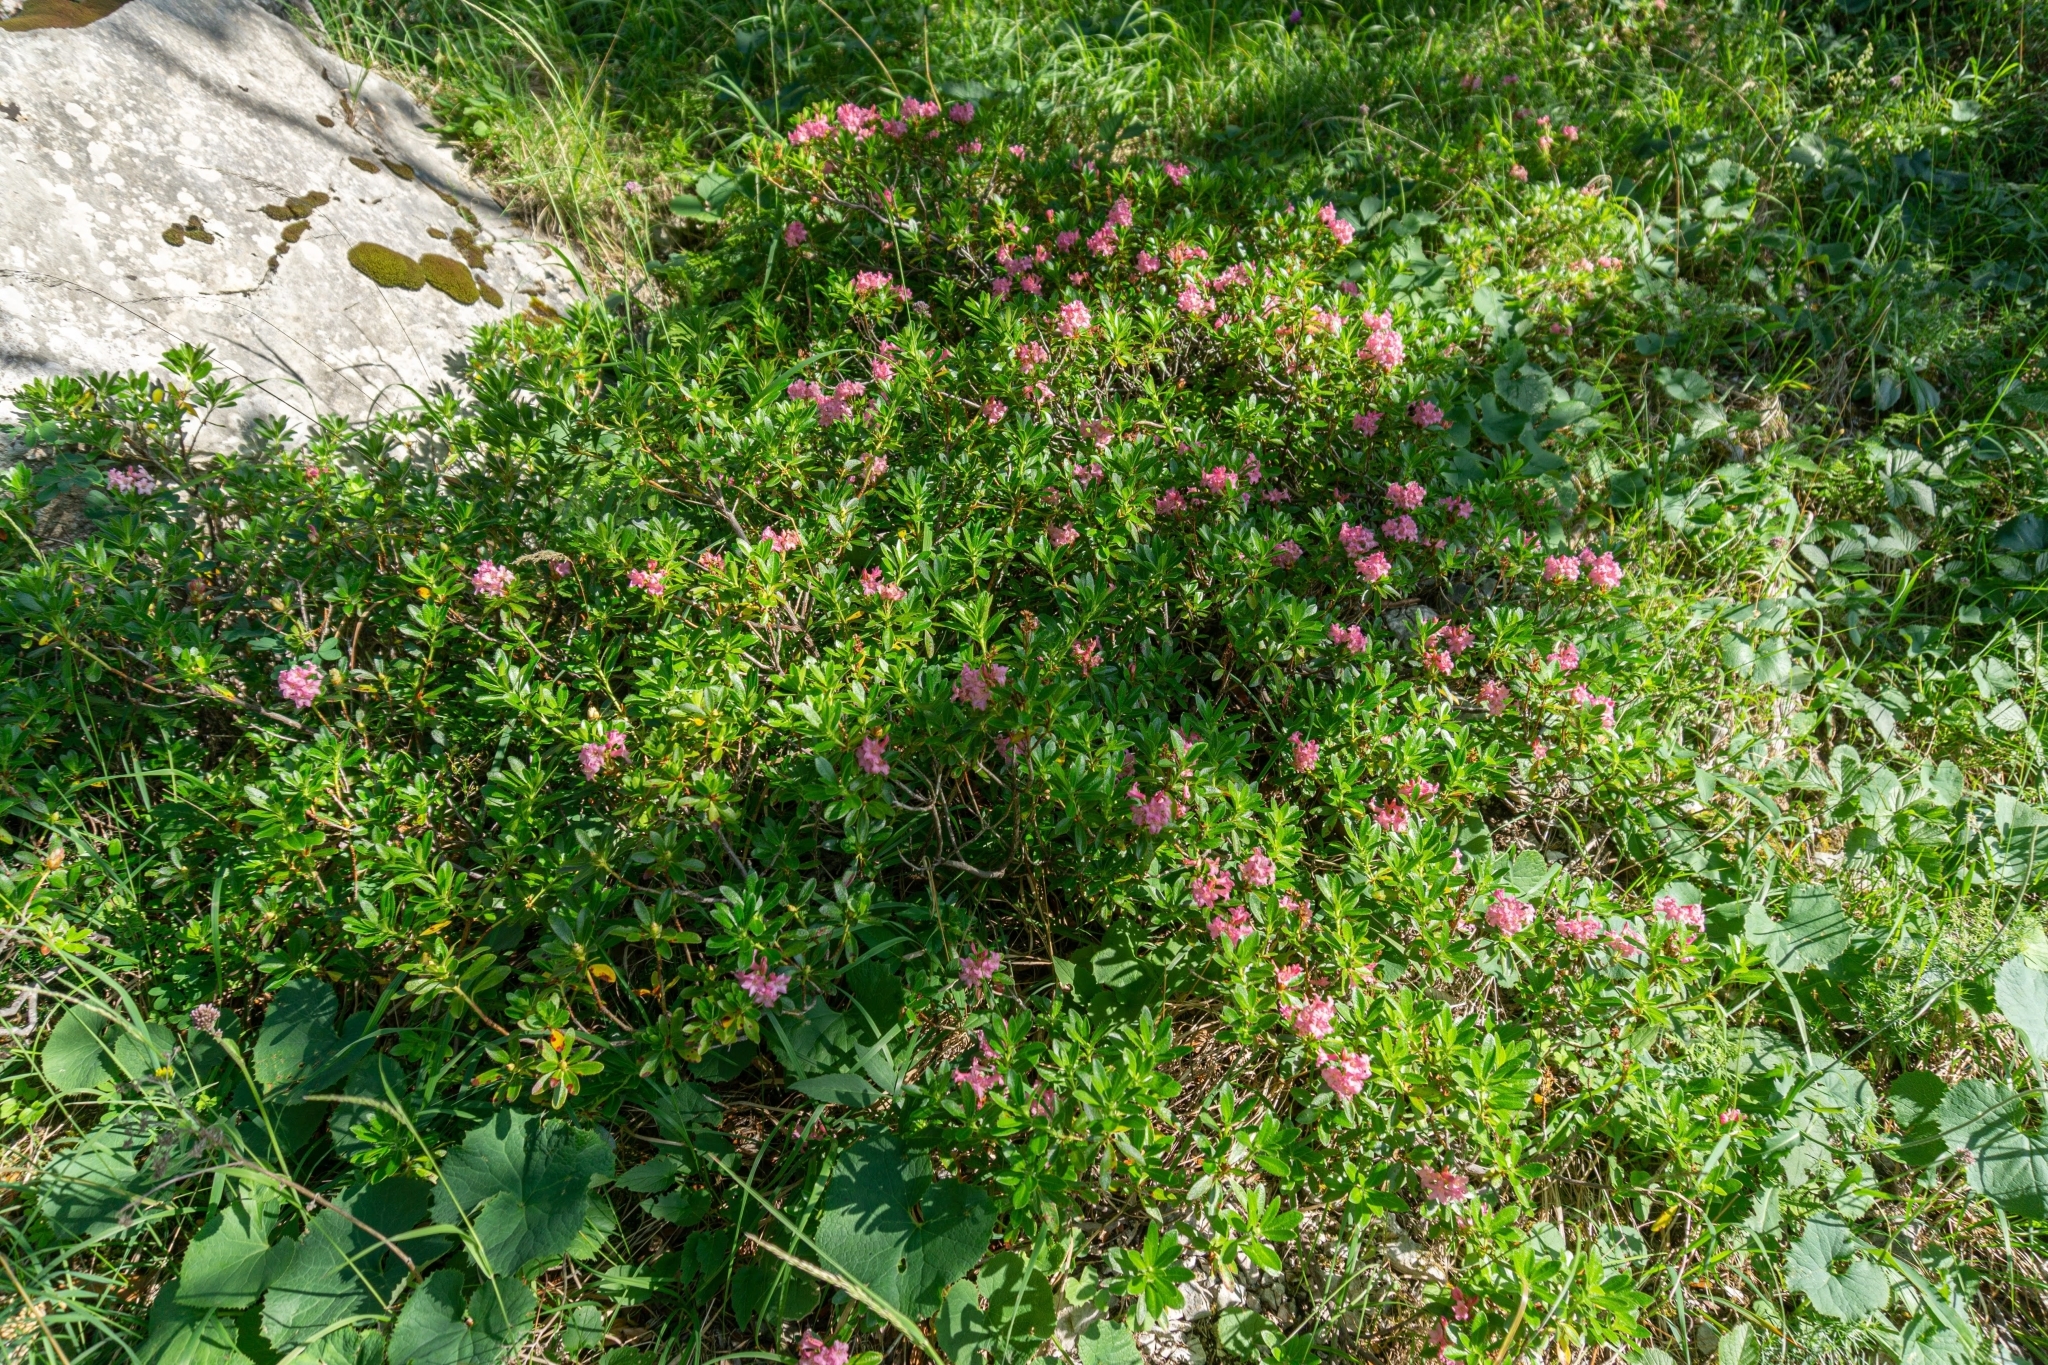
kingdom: Plantae
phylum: Tracheophyta
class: Magnoliopsida
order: Ericales
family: Ericaceae
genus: Rhododendron
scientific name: Rhododendron hirsutum
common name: Hairy alpenrose
